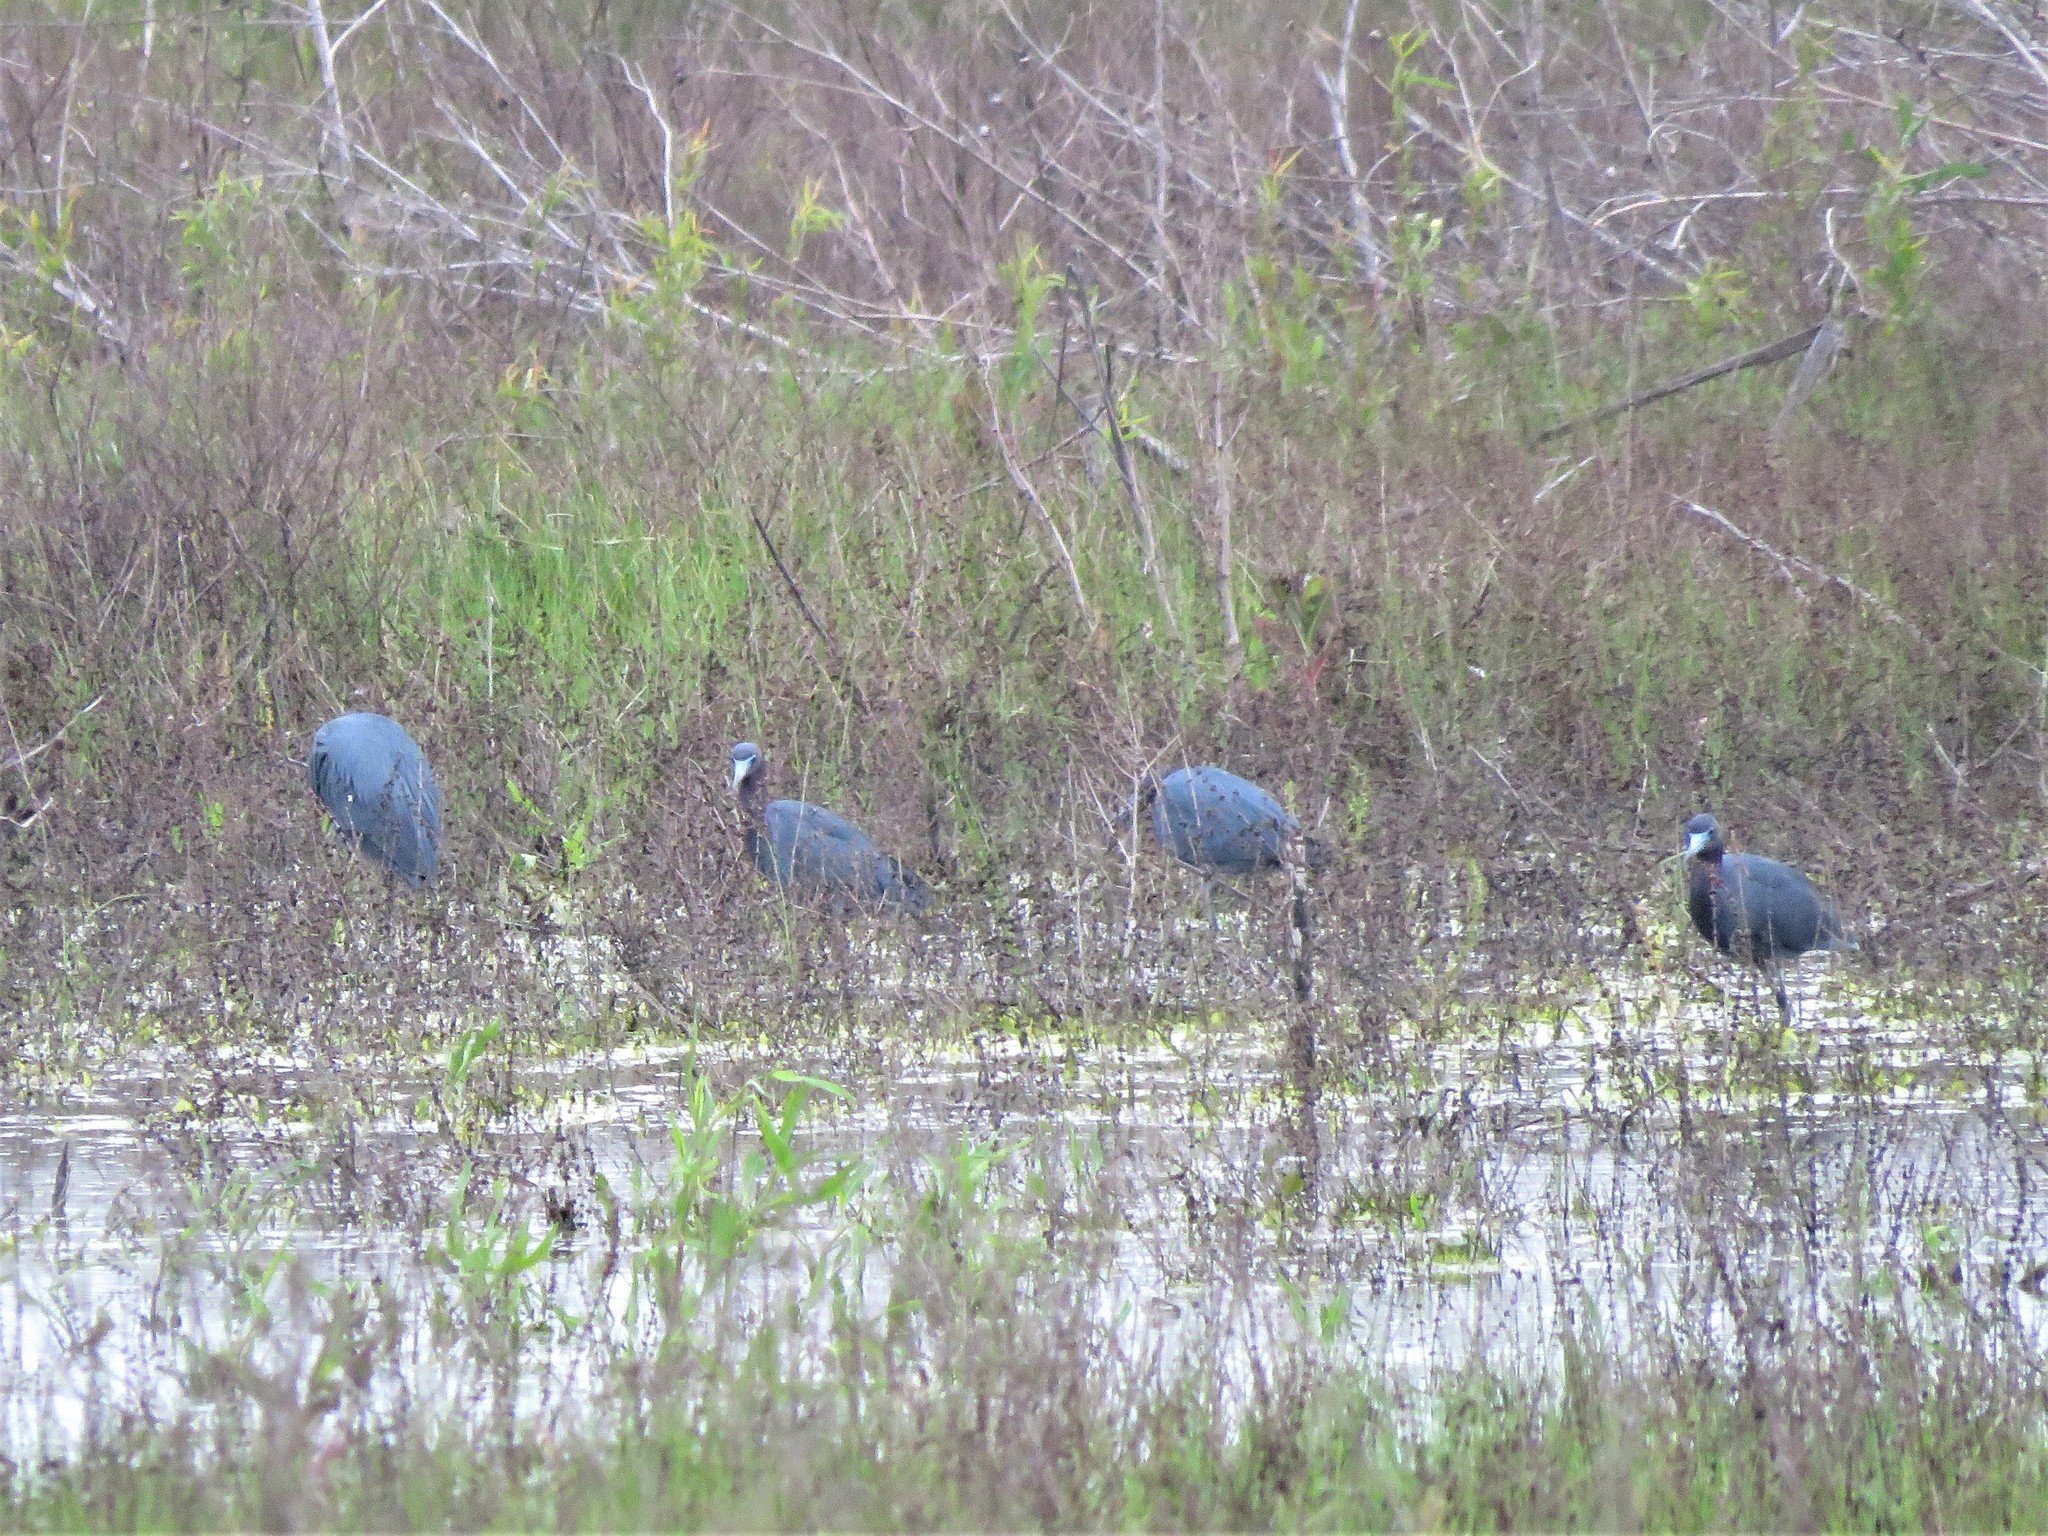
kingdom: Animalia
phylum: Chordata
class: Aves
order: Pelecaniformes
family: Ardeidae
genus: Egretta
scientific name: Egretta caerulea
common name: Little blue heron
